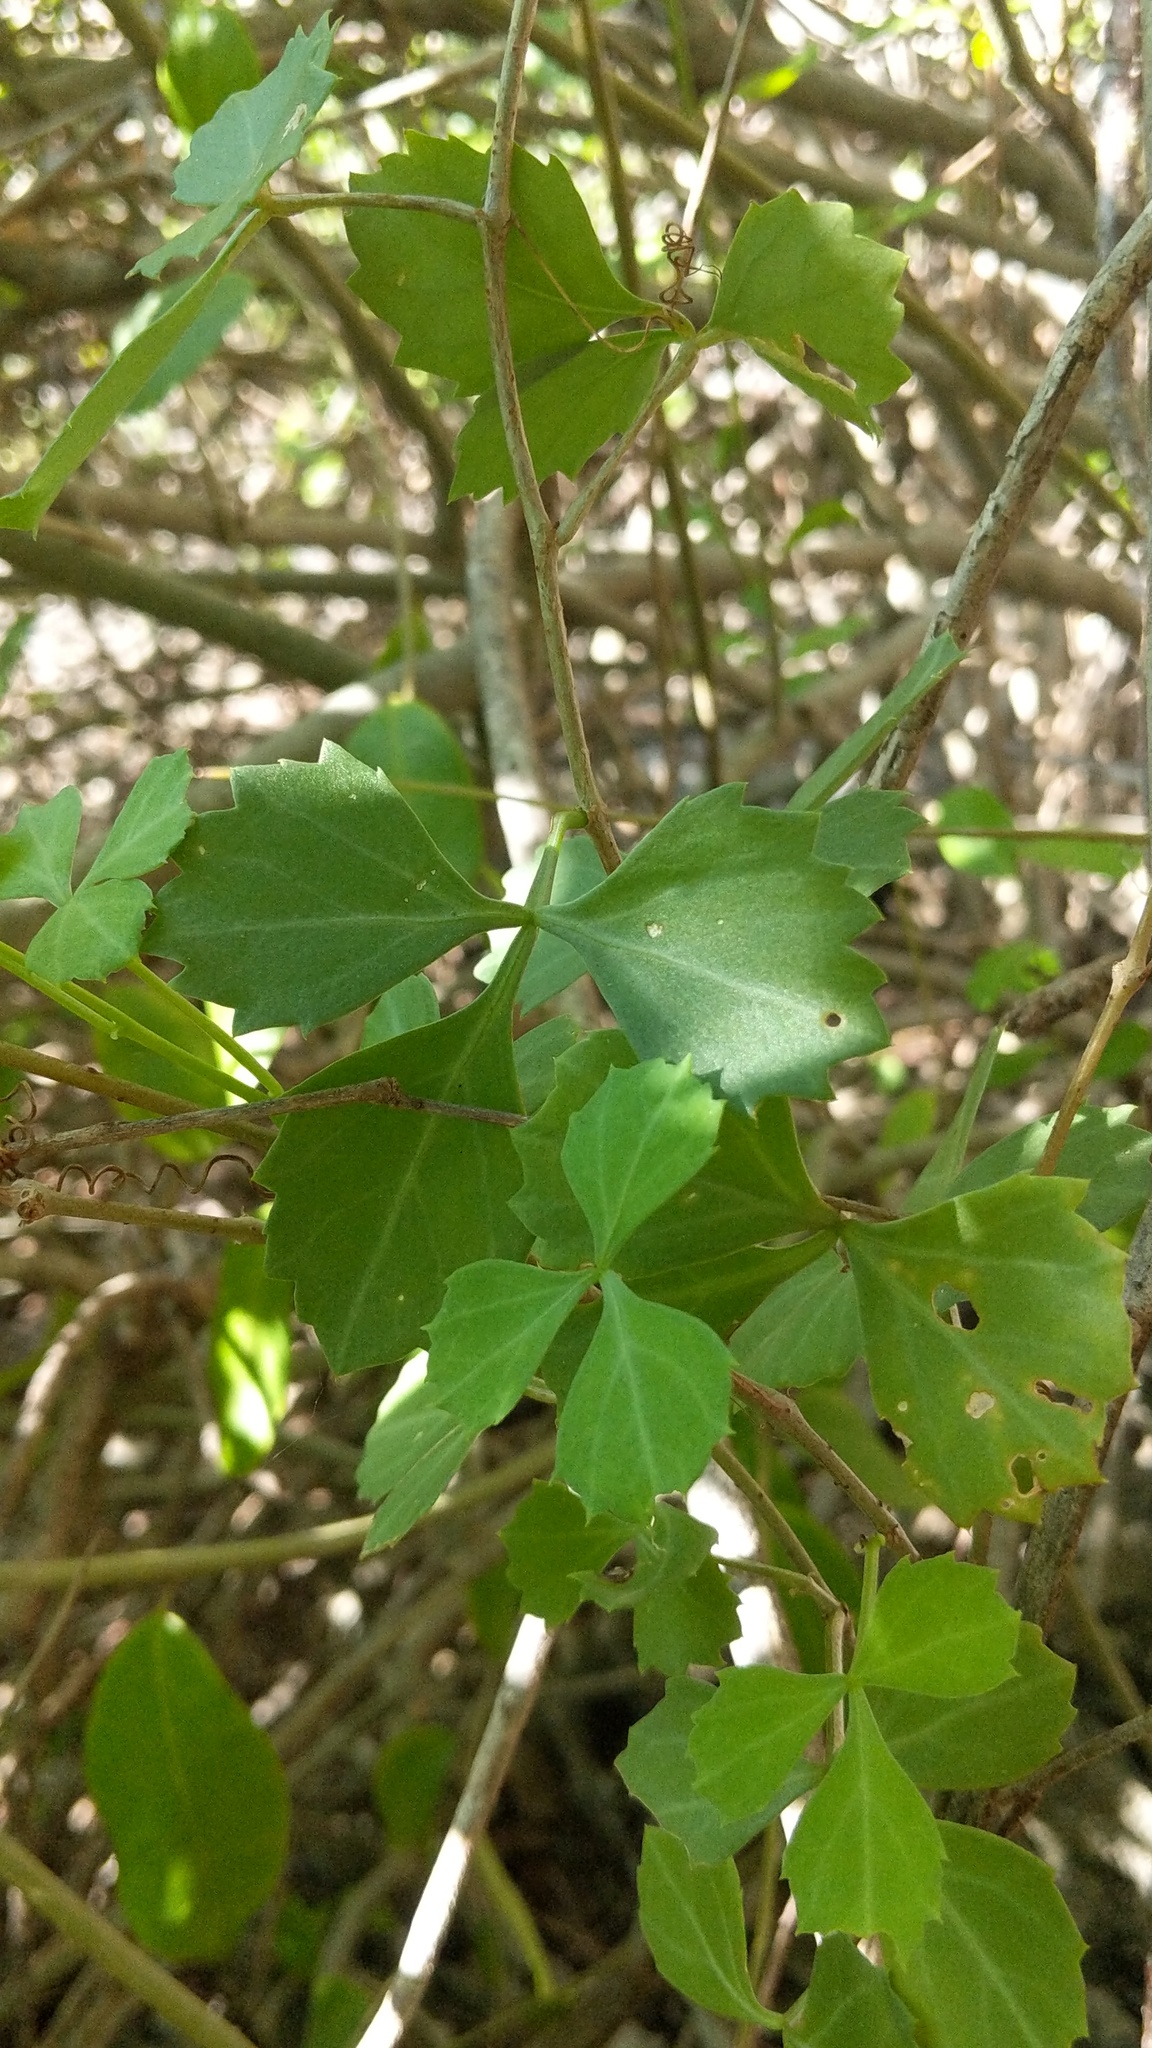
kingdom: Plantae
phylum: Tracheophyta
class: Magnoliopsida
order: Vitales
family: Vitaceae
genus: Cissus
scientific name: Cissus trifoliata
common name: Vine-sorrel
